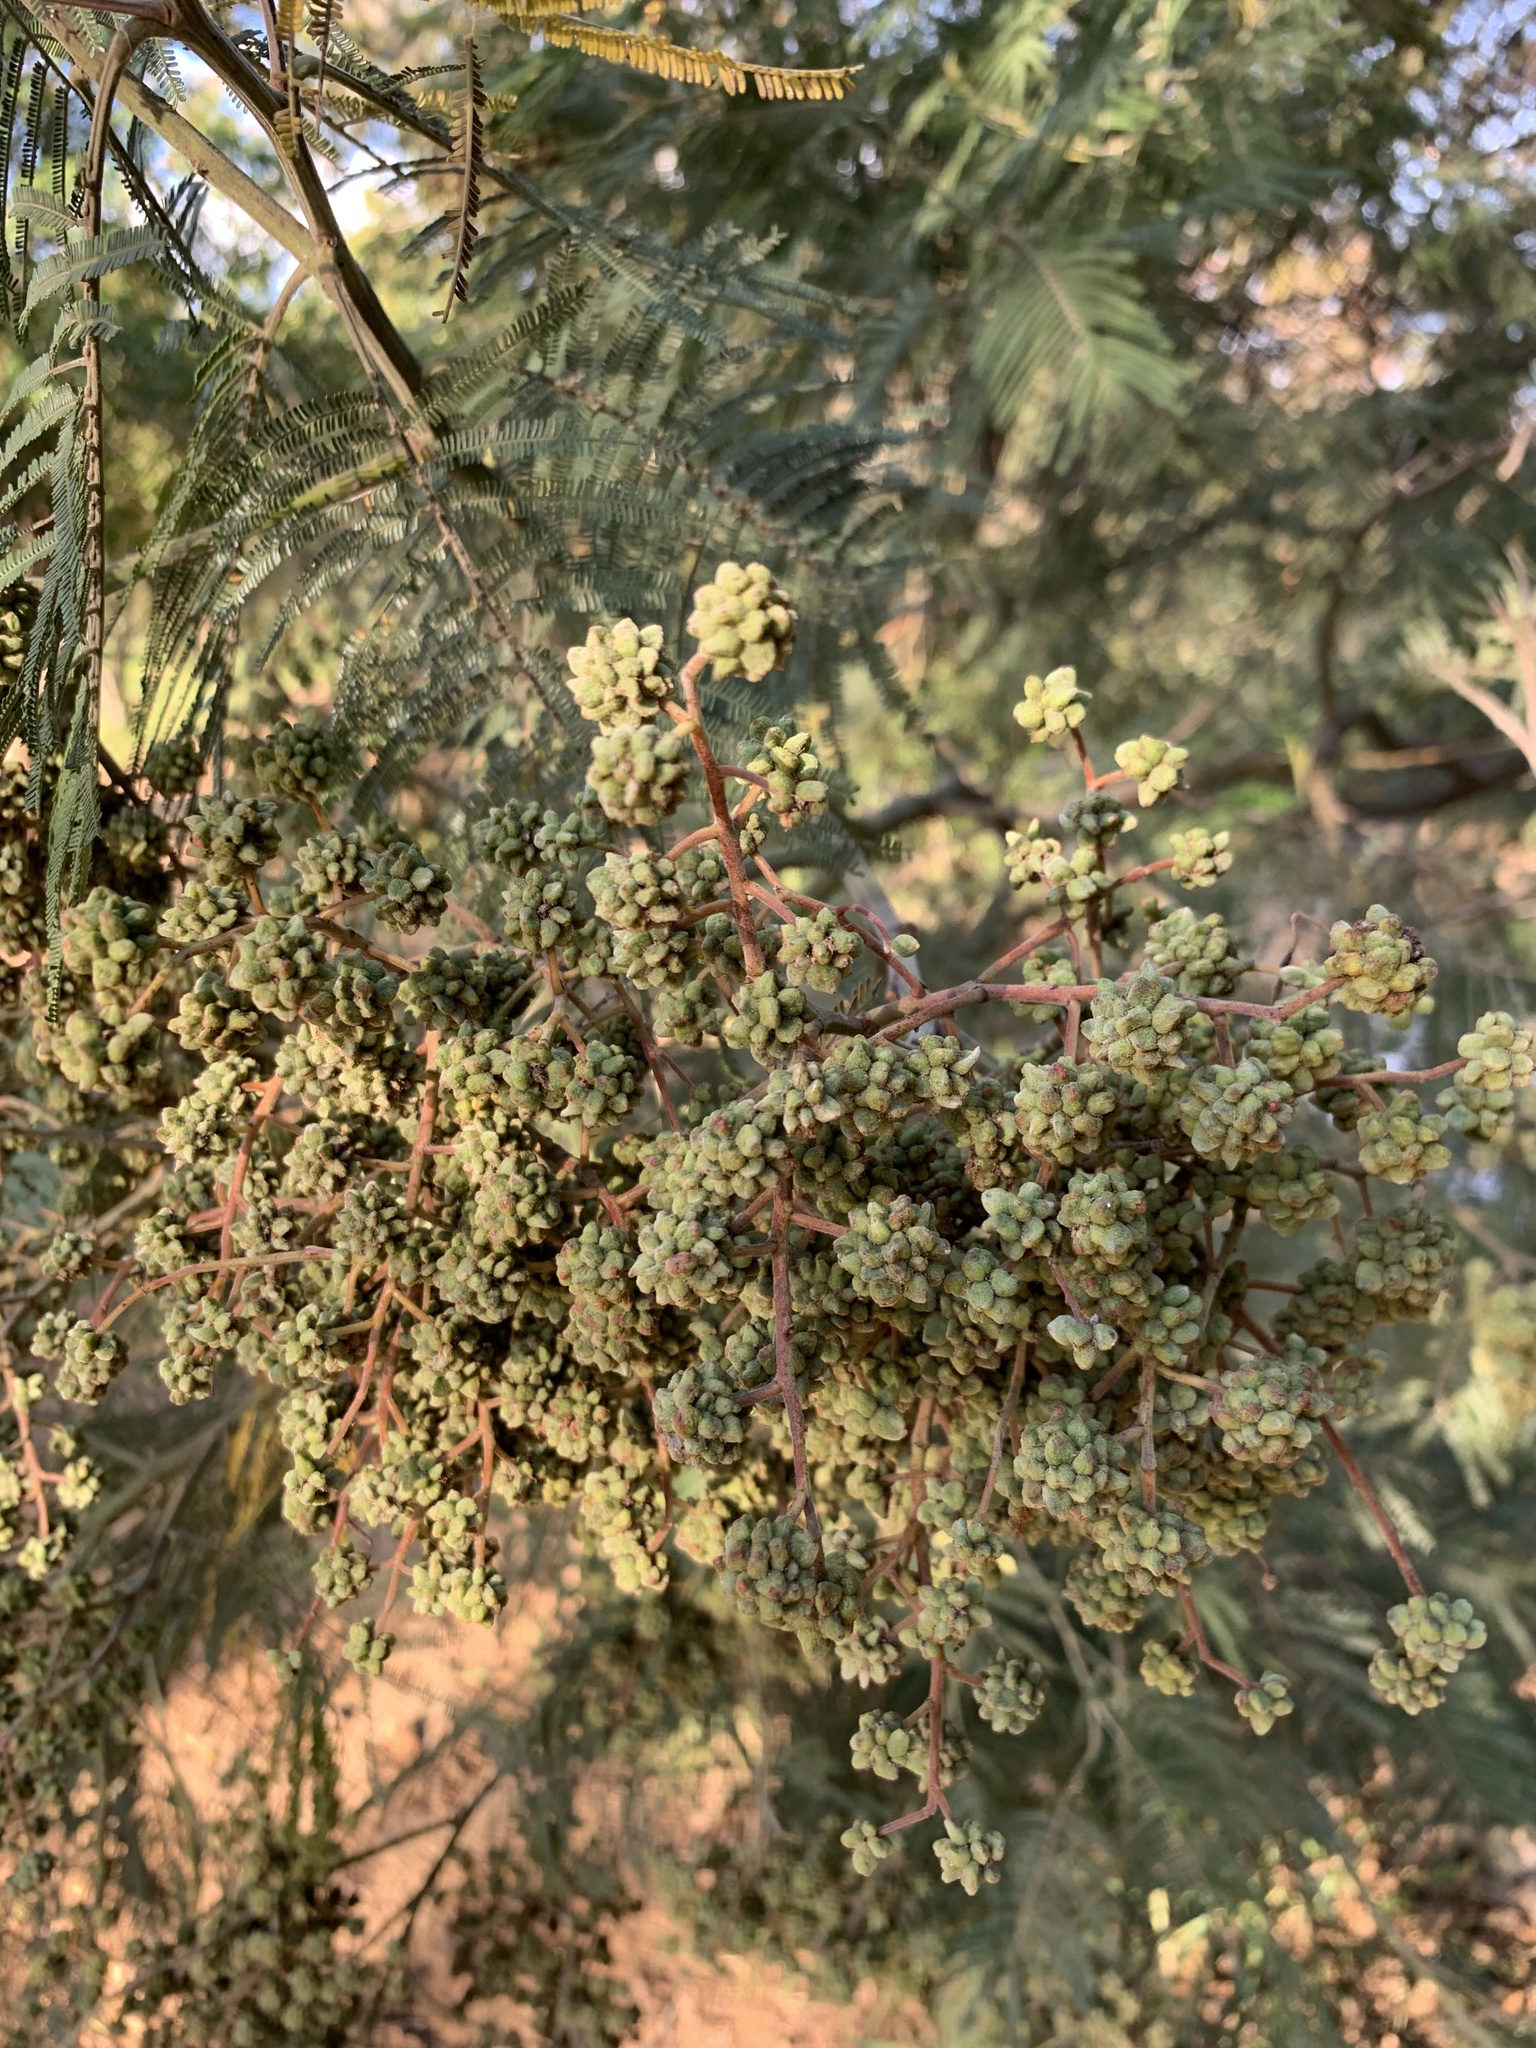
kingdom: Plantae
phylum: Tracheophyta
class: Magnoliopsida
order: Fabales
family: Fabaceae
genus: Acacia
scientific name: Acacia mearnsii
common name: Black wattle
